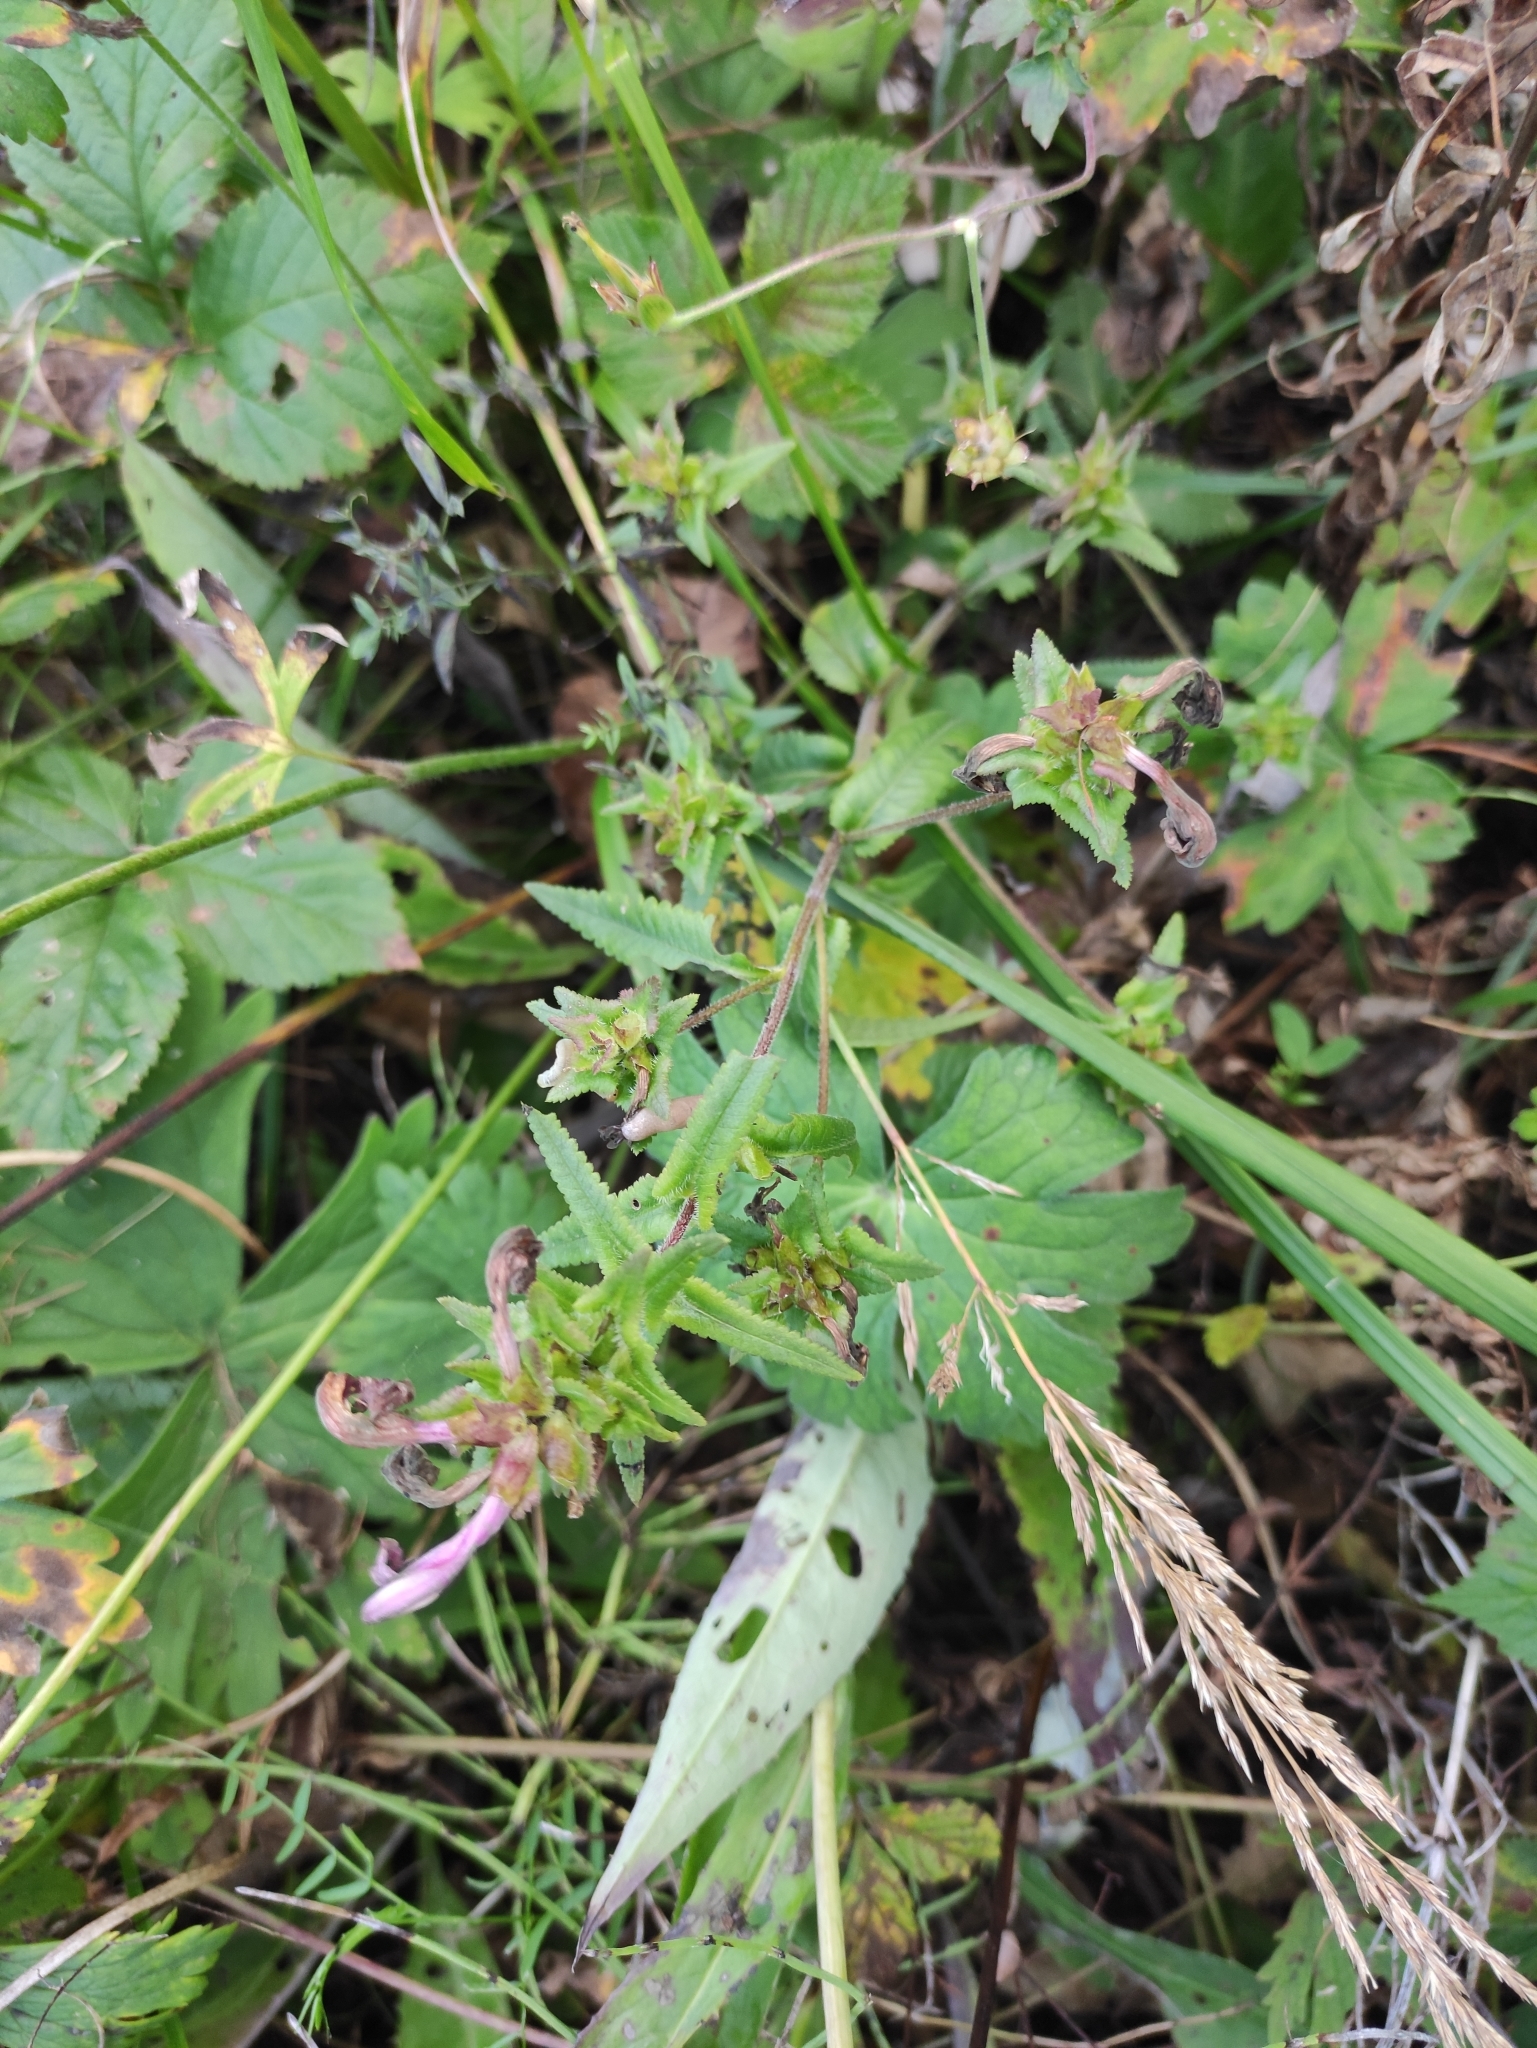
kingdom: Plantae
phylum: Tracheophyta
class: Magnoliopsida
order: Lamiales
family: Orobanchaceae
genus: Pedicularis
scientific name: Pedicularis resupinata
